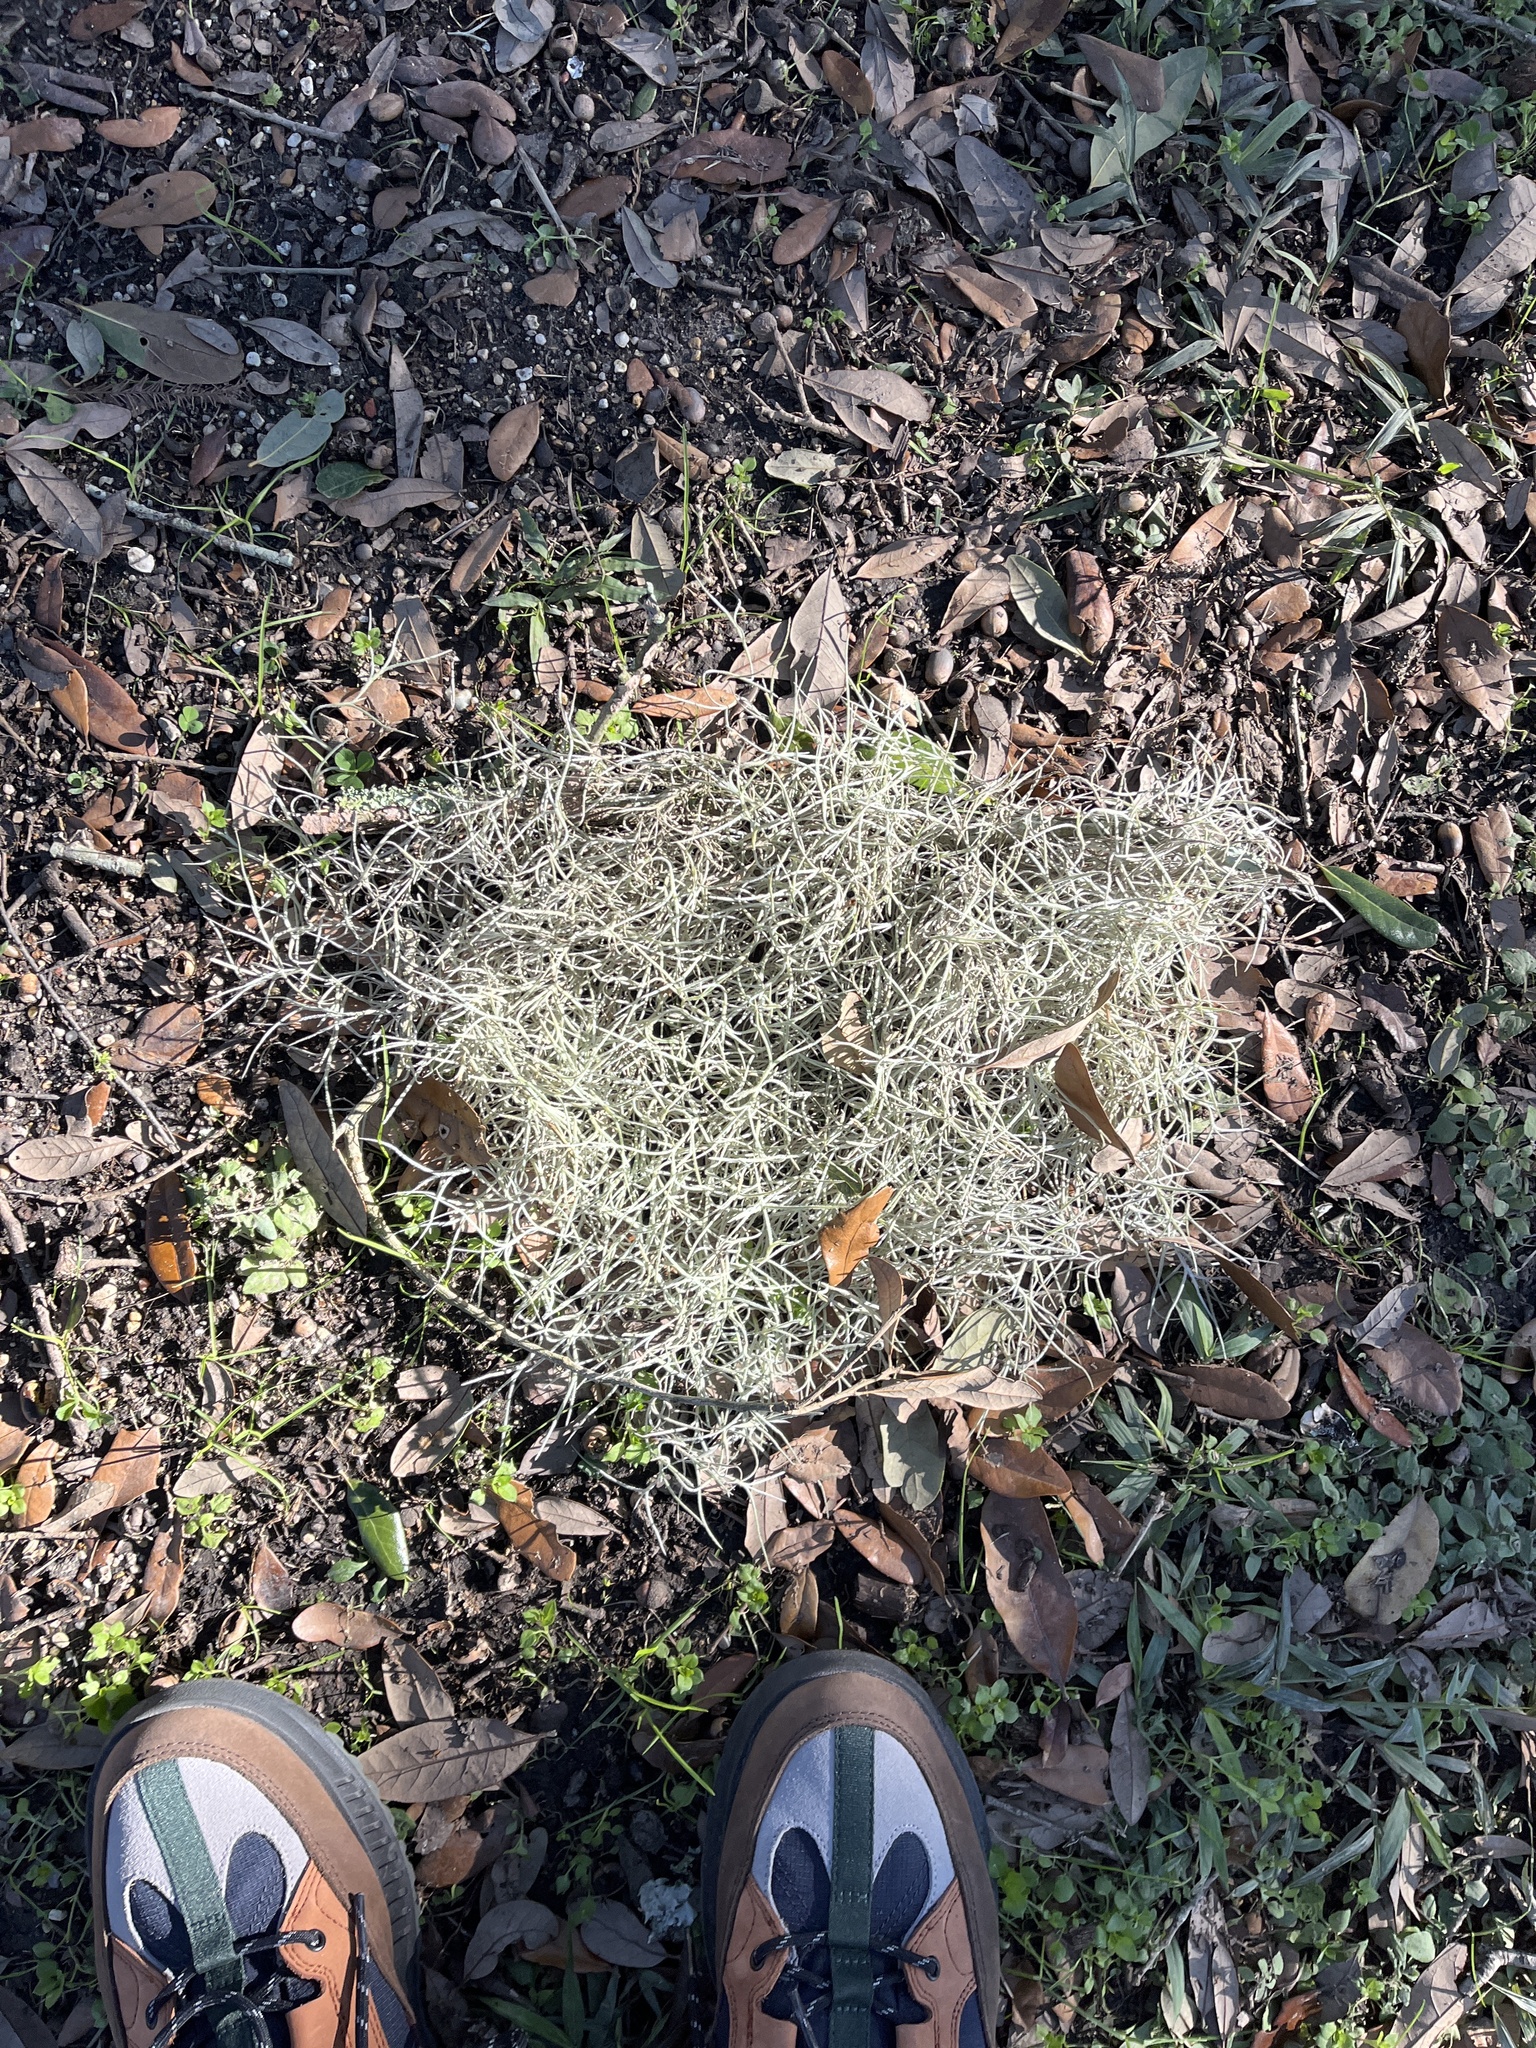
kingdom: Plantae
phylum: Tracheophyta
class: Liliopsida
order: Poales
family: Bromeliaceae
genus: Tillandsia
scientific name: Tillandsia usneoides
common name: Spanish moss
